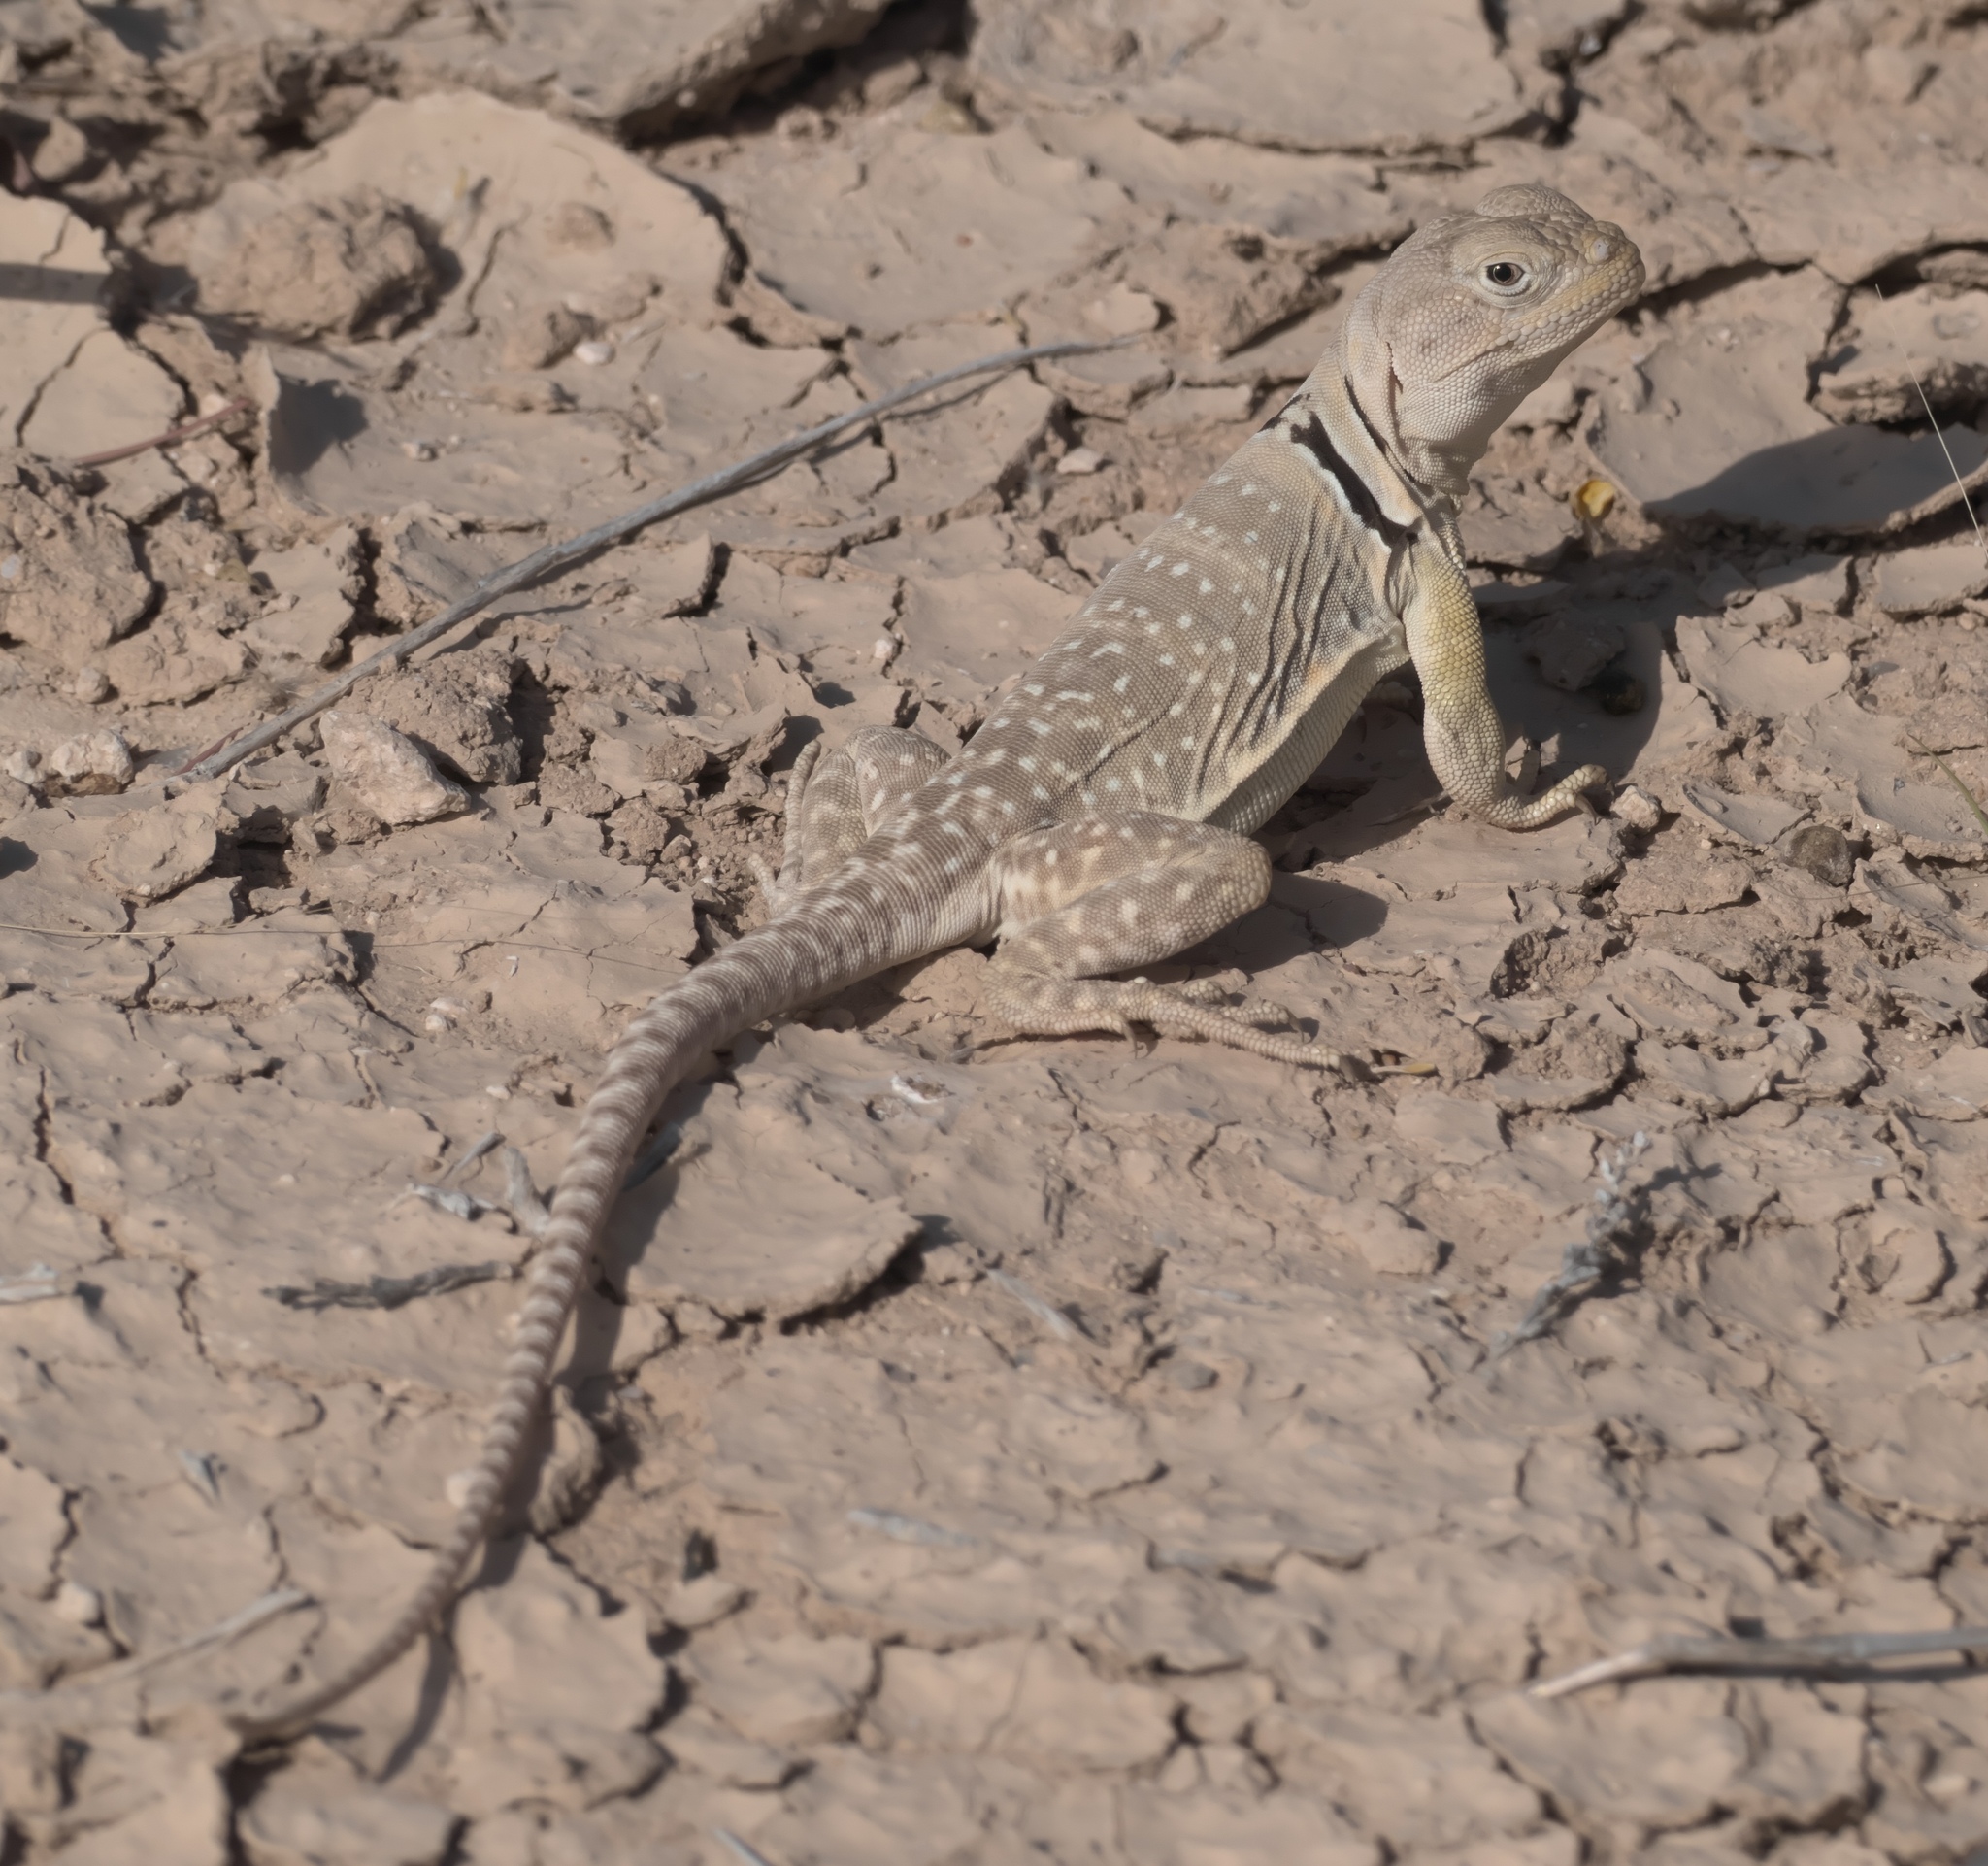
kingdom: Animalia
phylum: Chordata
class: Squamata
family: Crotaphytidae
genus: Crotaphytus
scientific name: Crotaphytus collaris
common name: Collared lizard
